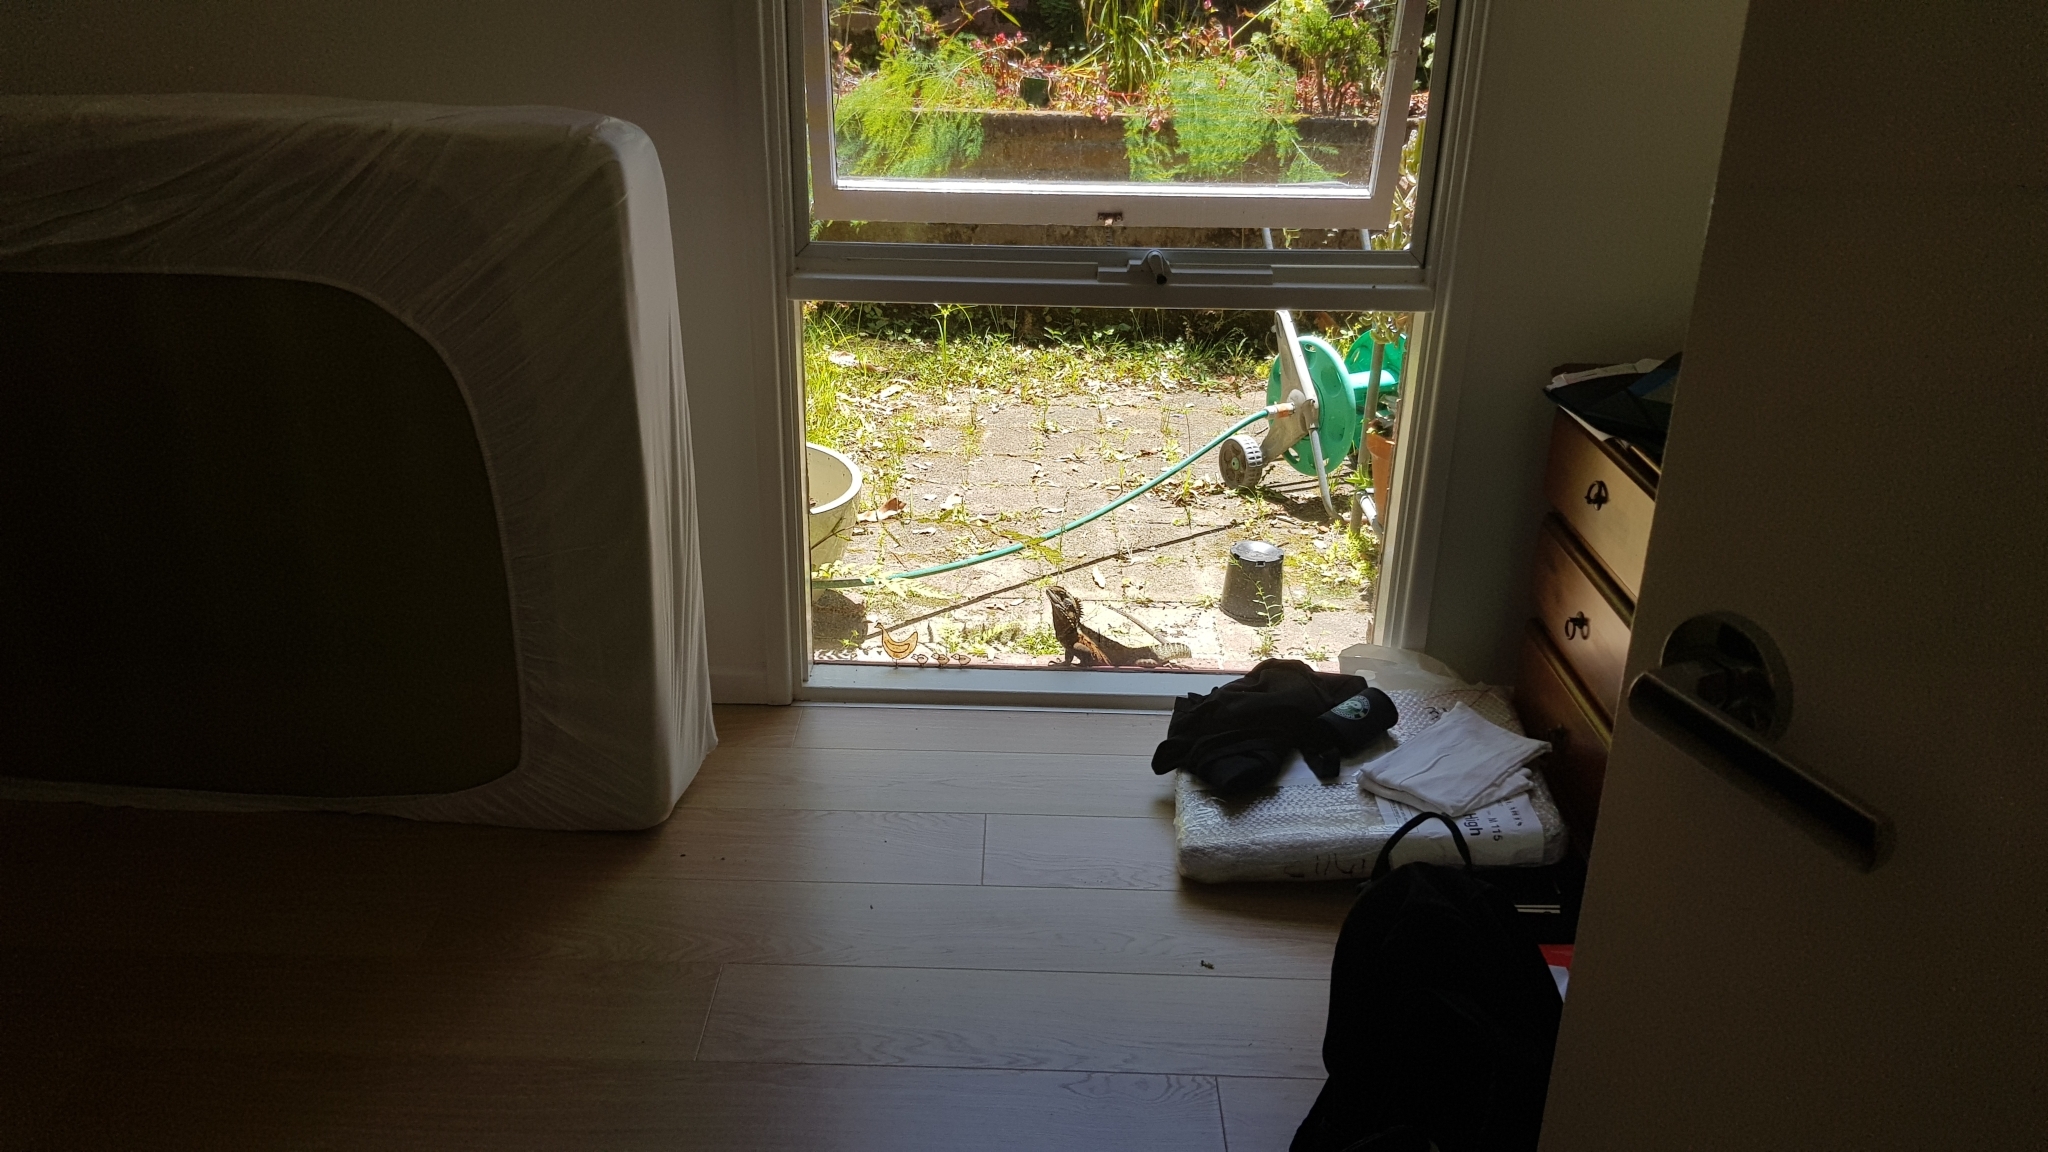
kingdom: Animalia
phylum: Chordata
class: Squamata
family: Agamidae
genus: Intellagama
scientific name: Intellagama lesueurii
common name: Eastern water dragon
